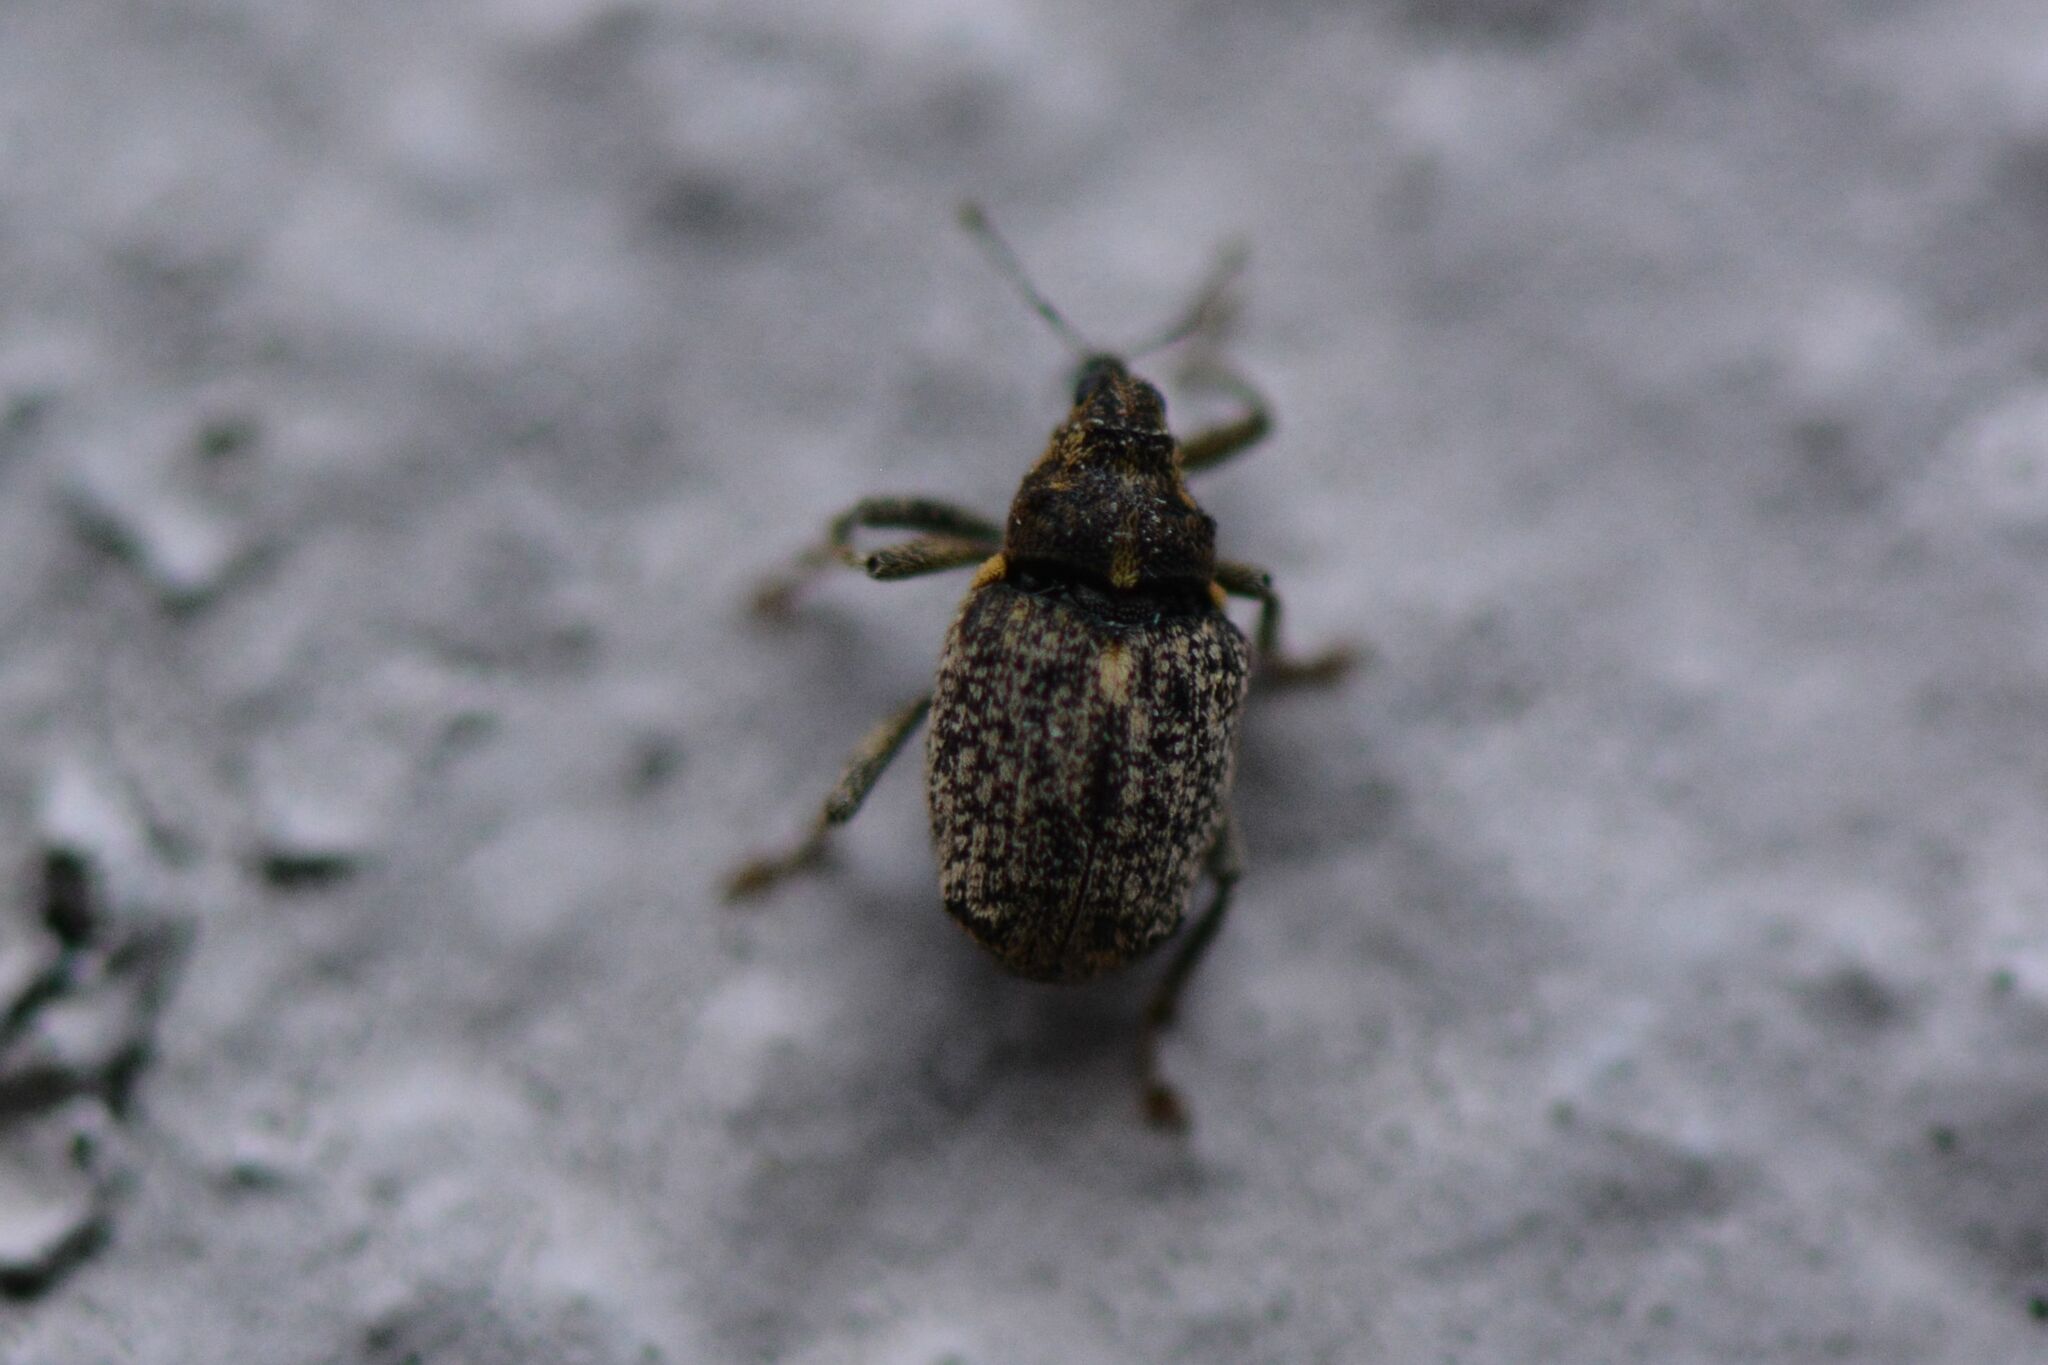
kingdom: Animalia
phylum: Arthropoda
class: Insecta
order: Coleoptera
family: Curculionidae
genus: Ceutorhynchus
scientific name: Ceutorhynchus pallidactylus
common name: Cabbage stem weavil
